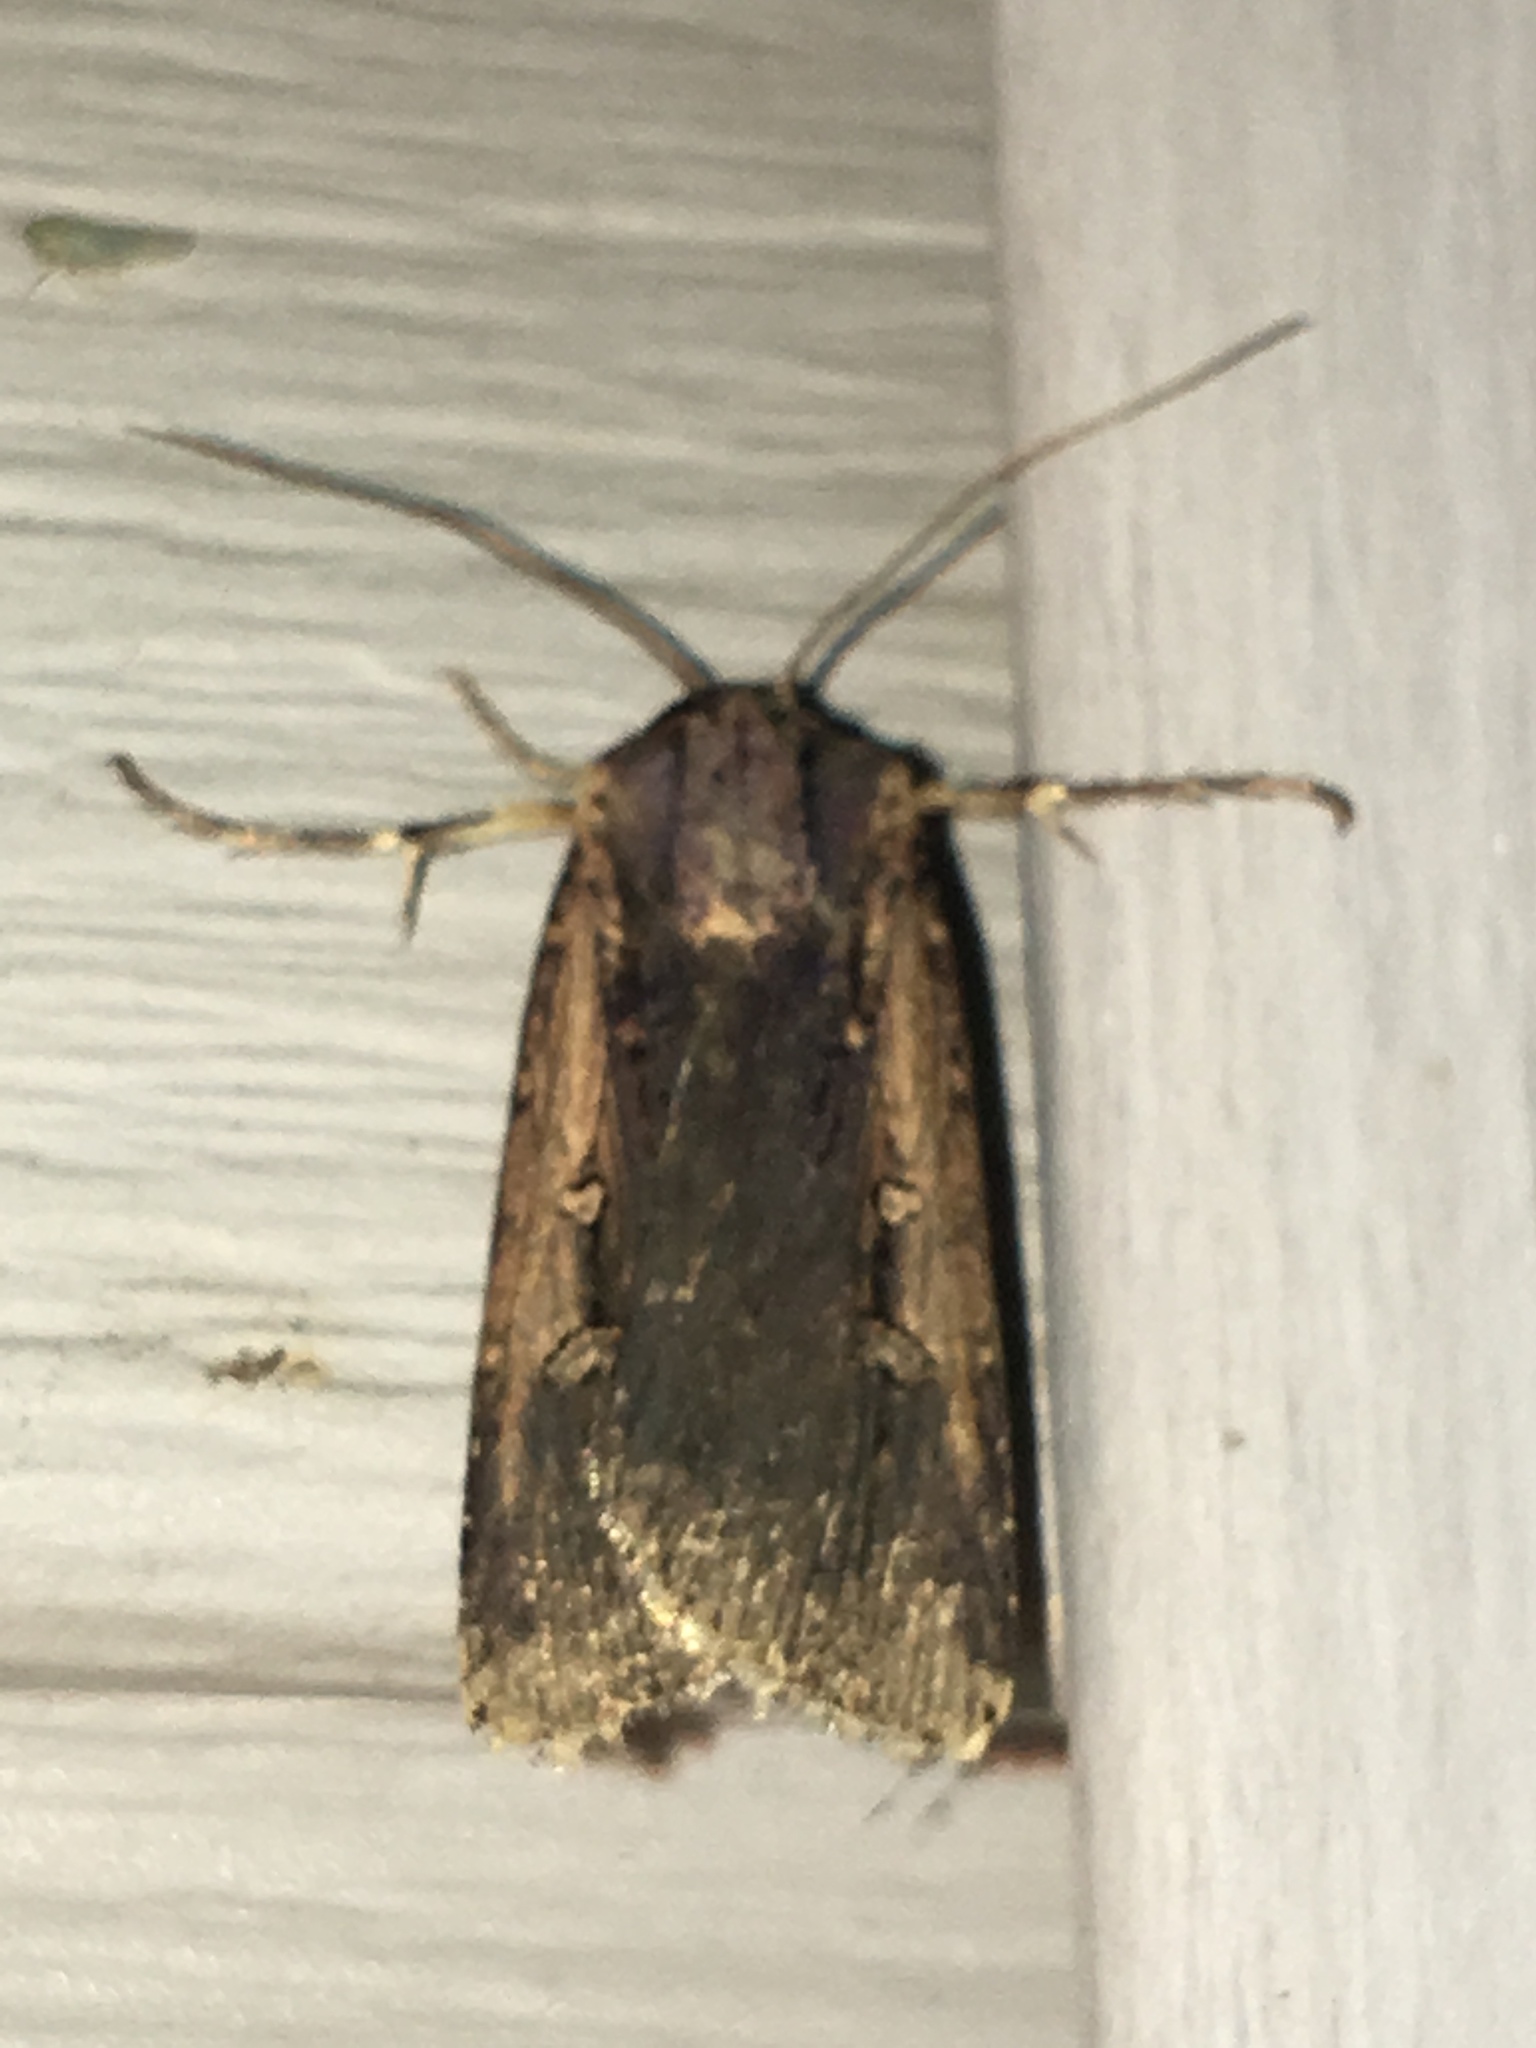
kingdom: Animalia
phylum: Arthropoda
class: Insecta
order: Lepidoptera
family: Noctuidae
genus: Feltia
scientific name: Feltia subterranea
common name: Granulate cutworm
